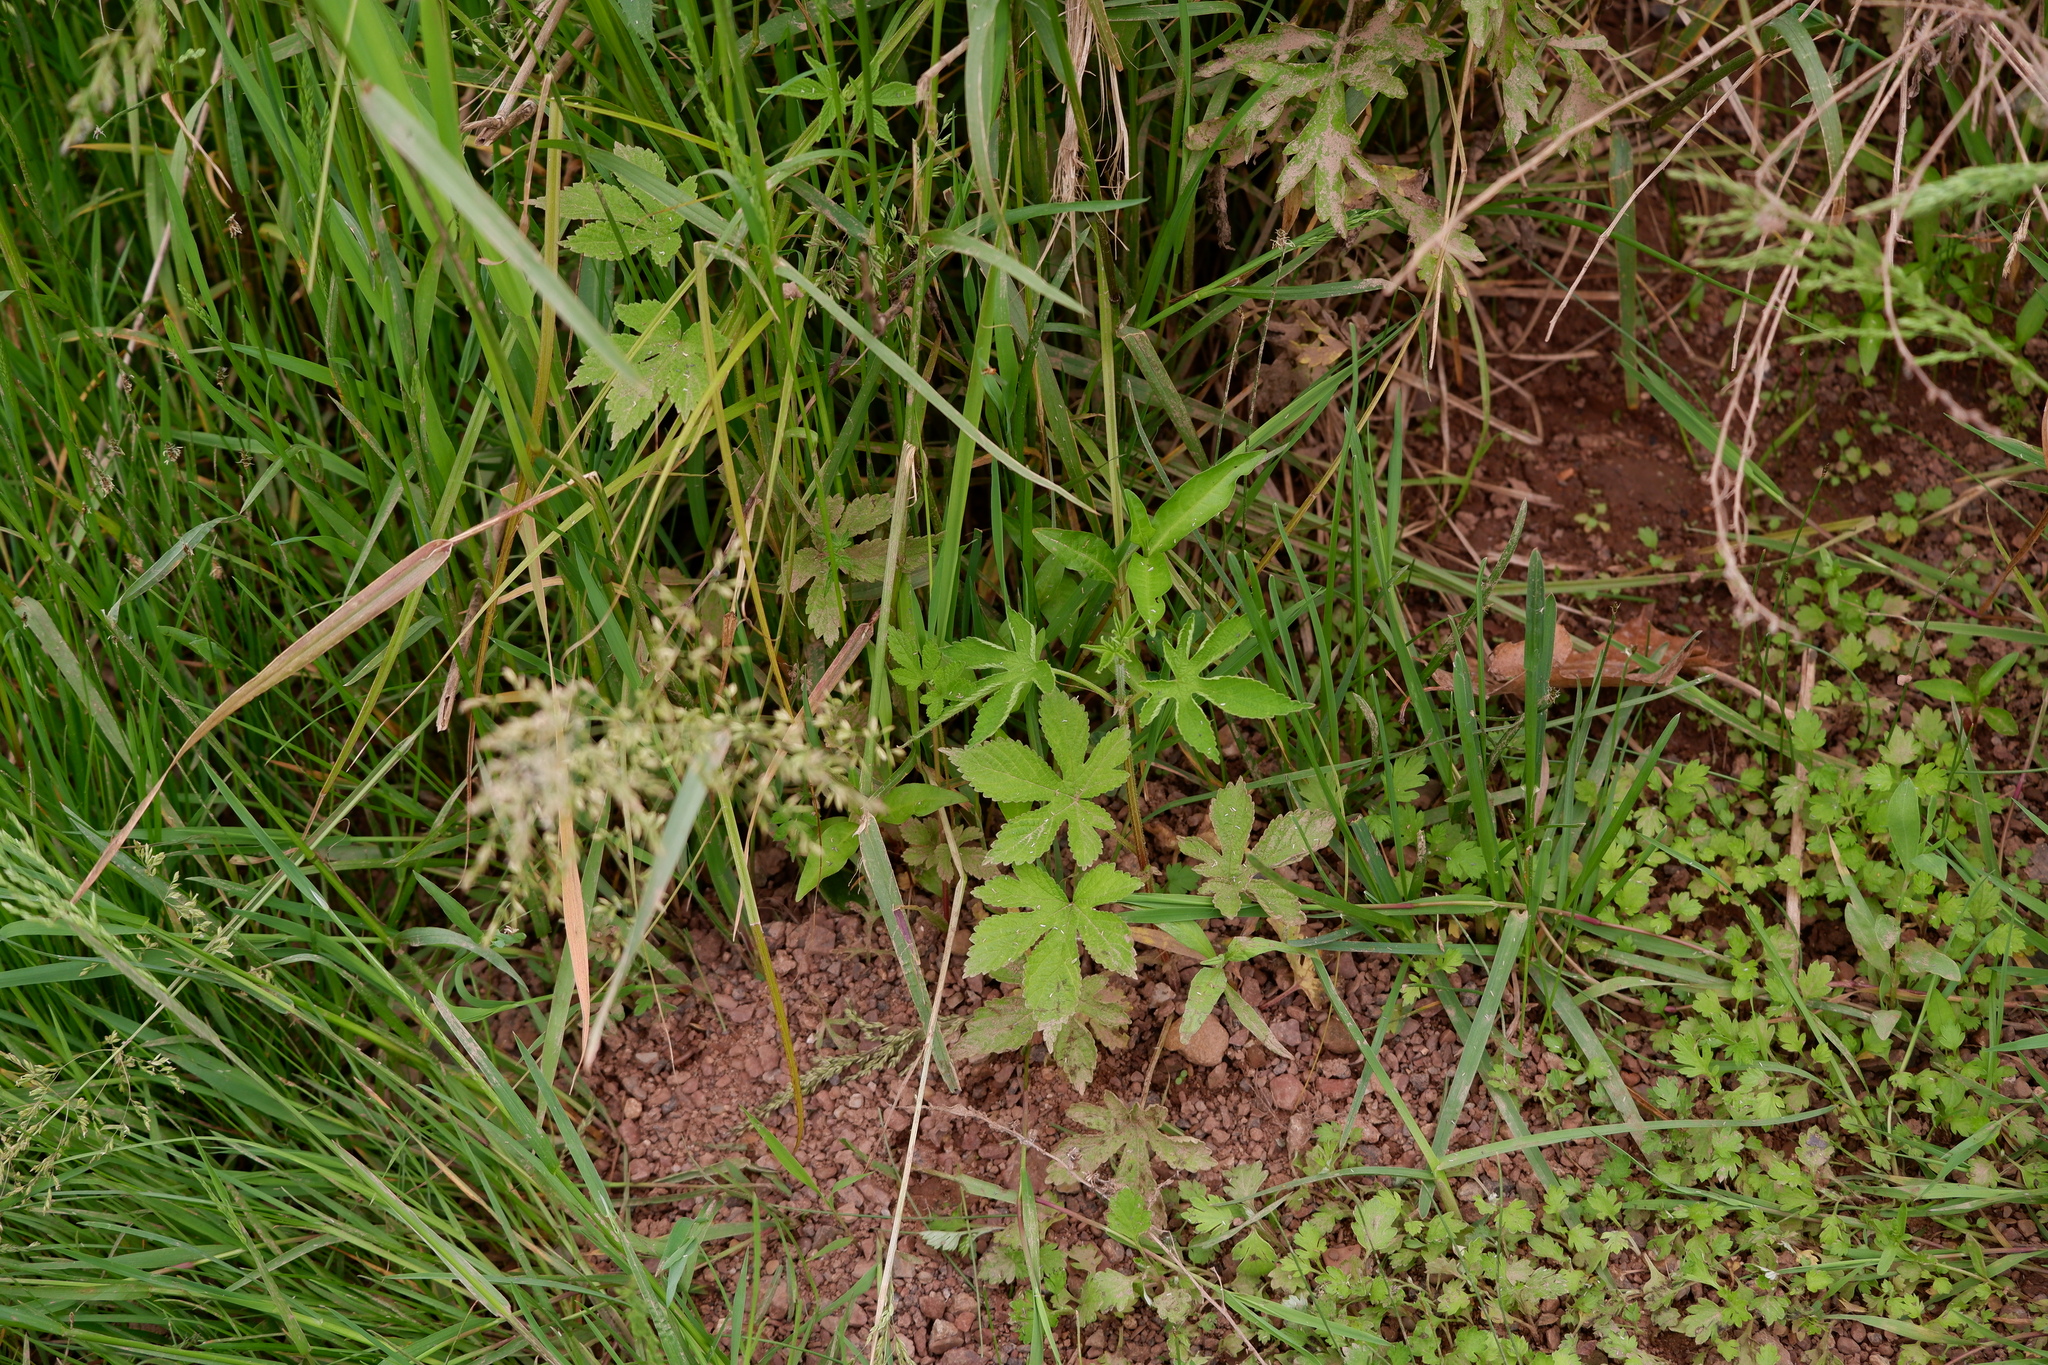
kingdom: Plantae
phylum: Tracheophyta
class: Magnoliopsida
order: Rosales
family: Cannabaceae
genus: Humulus
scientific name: Humulus scandens
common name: Japanese hop
